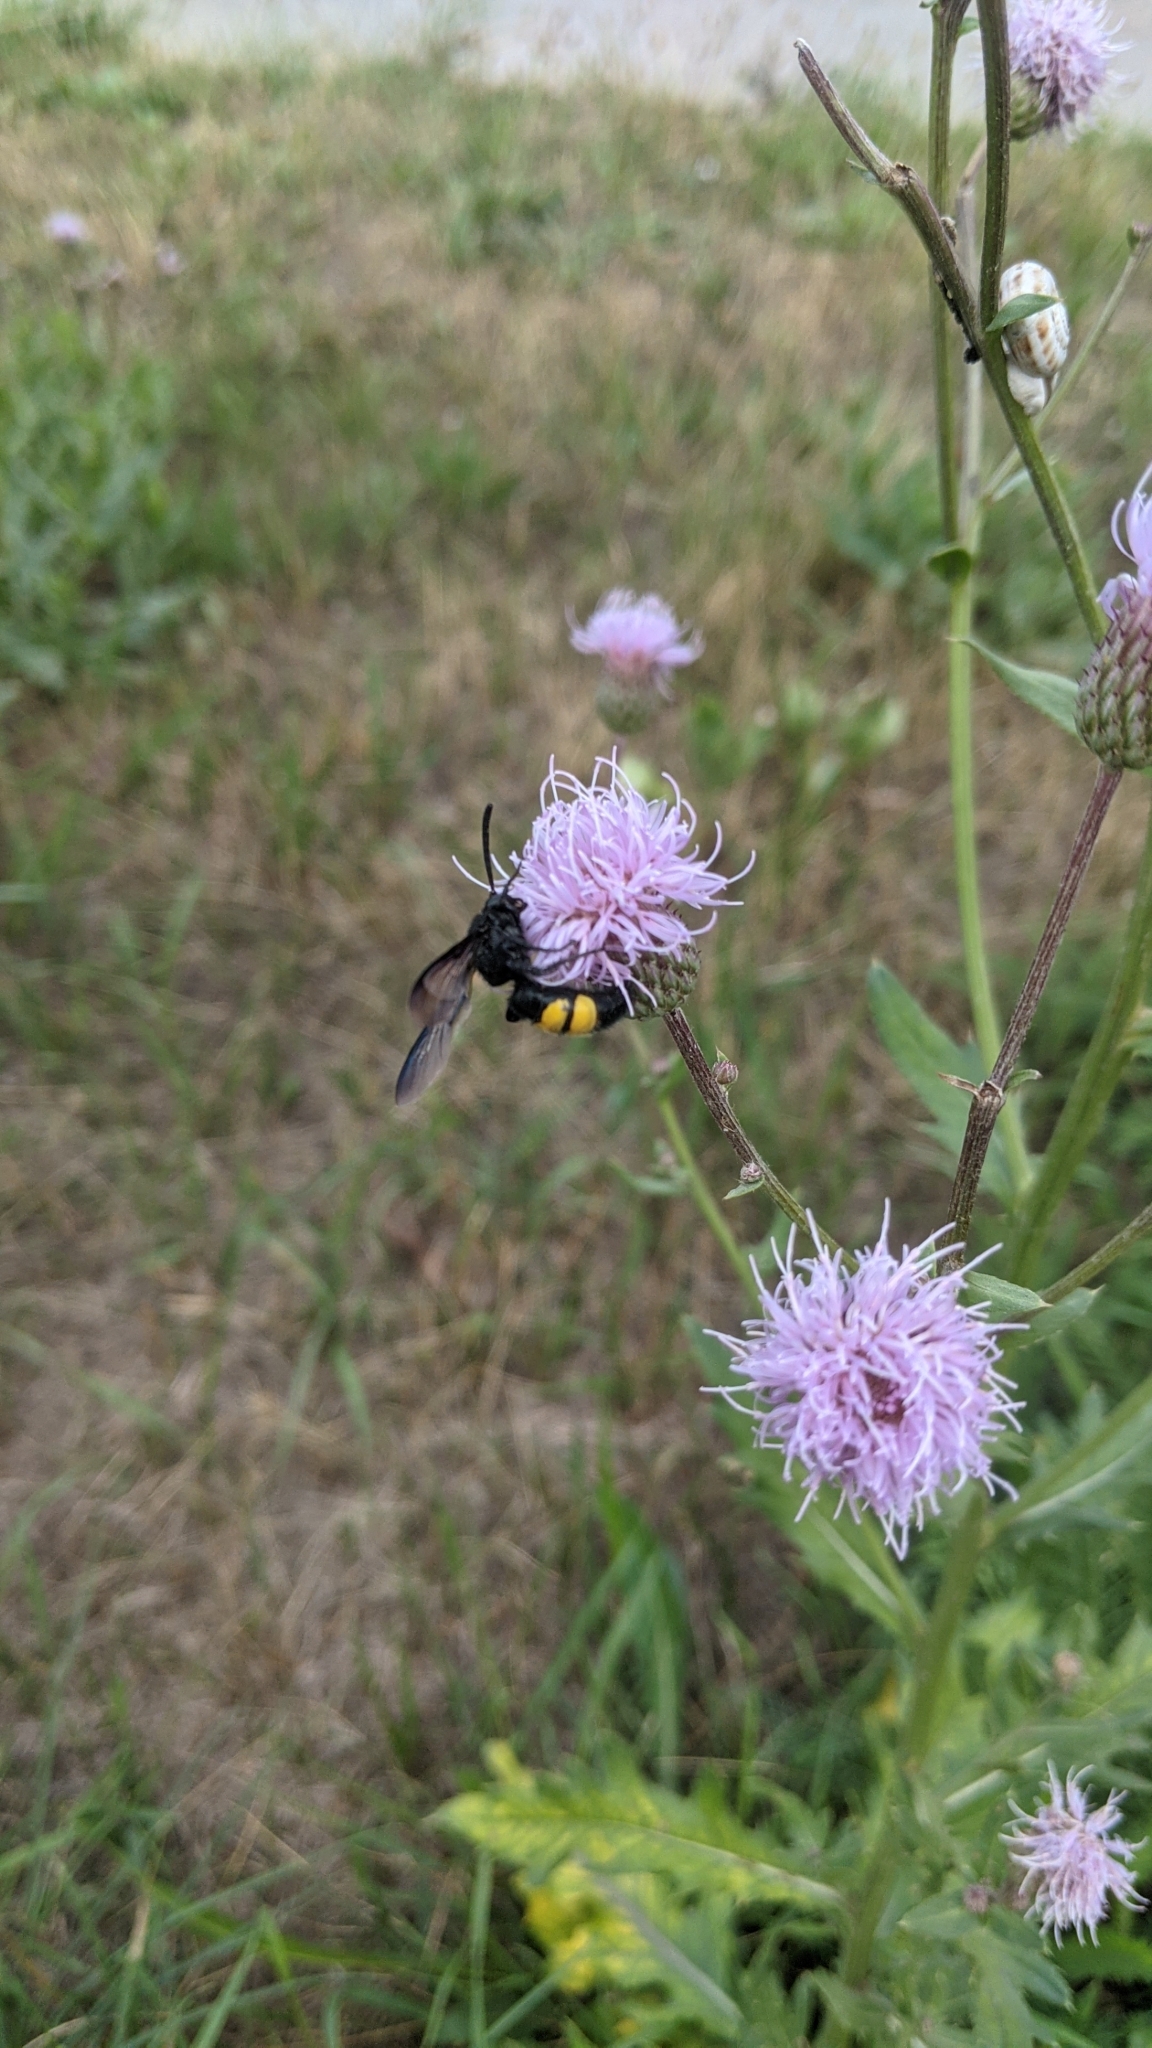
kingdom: Animalia
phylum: Arthropoda
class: Insecta
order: Hymenoptera
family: Scoliidae
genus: Scolia
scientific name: Scolia hirta
